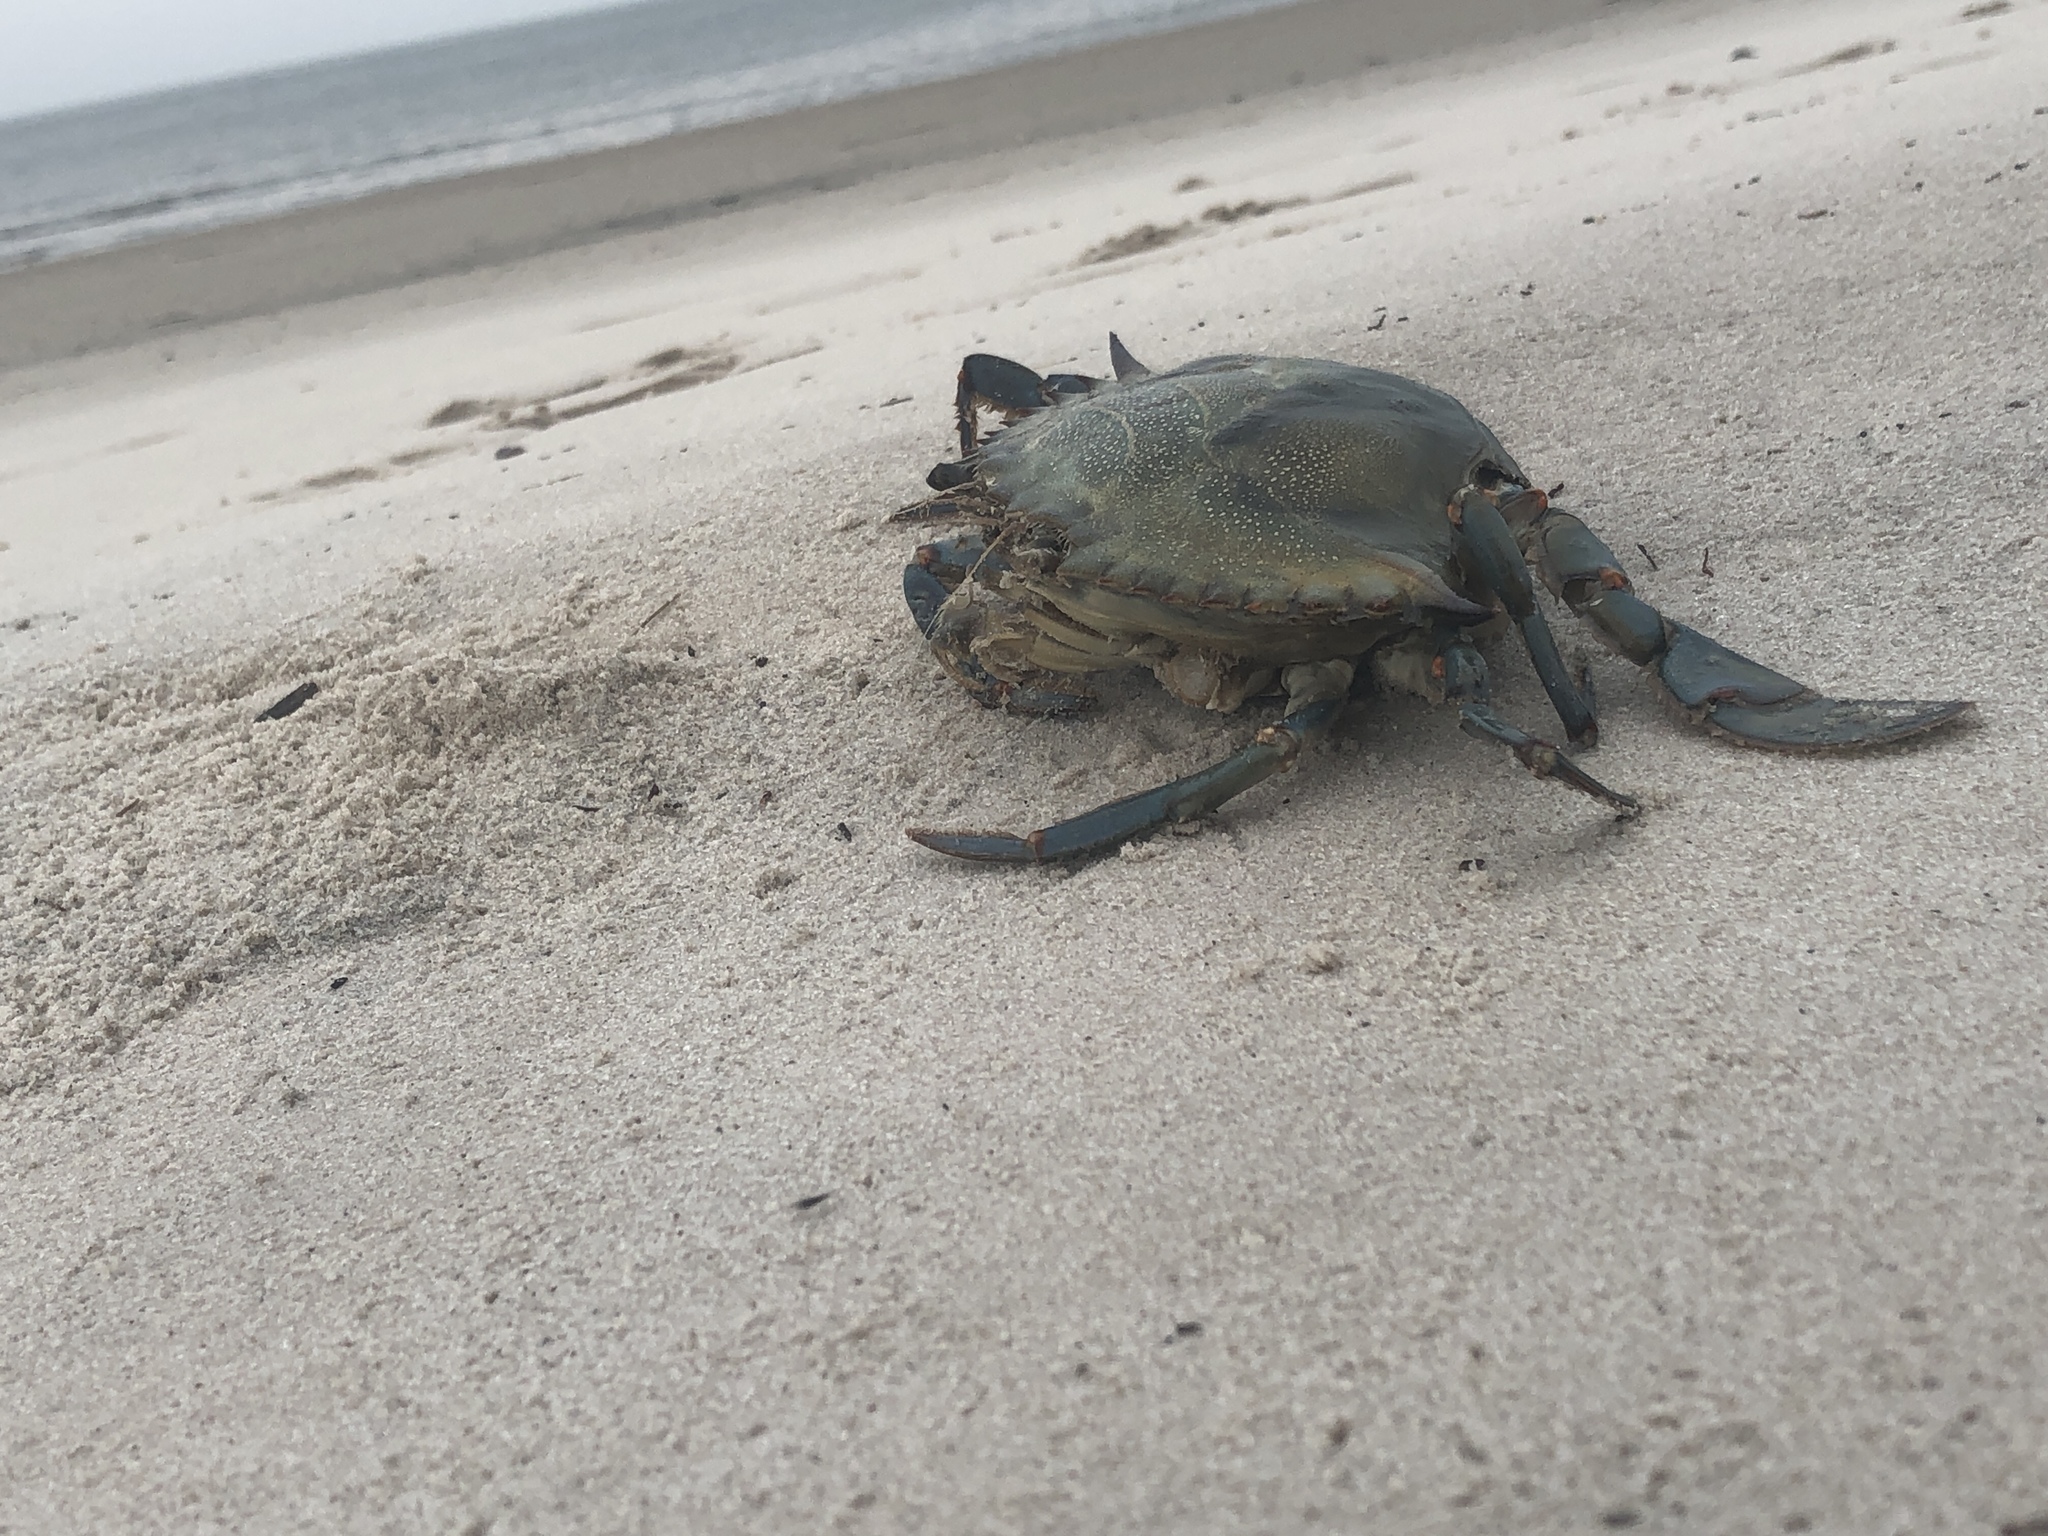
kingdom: Animalia
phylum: Arthropoda
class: Malacostraca
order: Decapoda
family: Portunidae
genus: Callinectes
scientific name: Callinectes sapidus
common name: Blue crab
